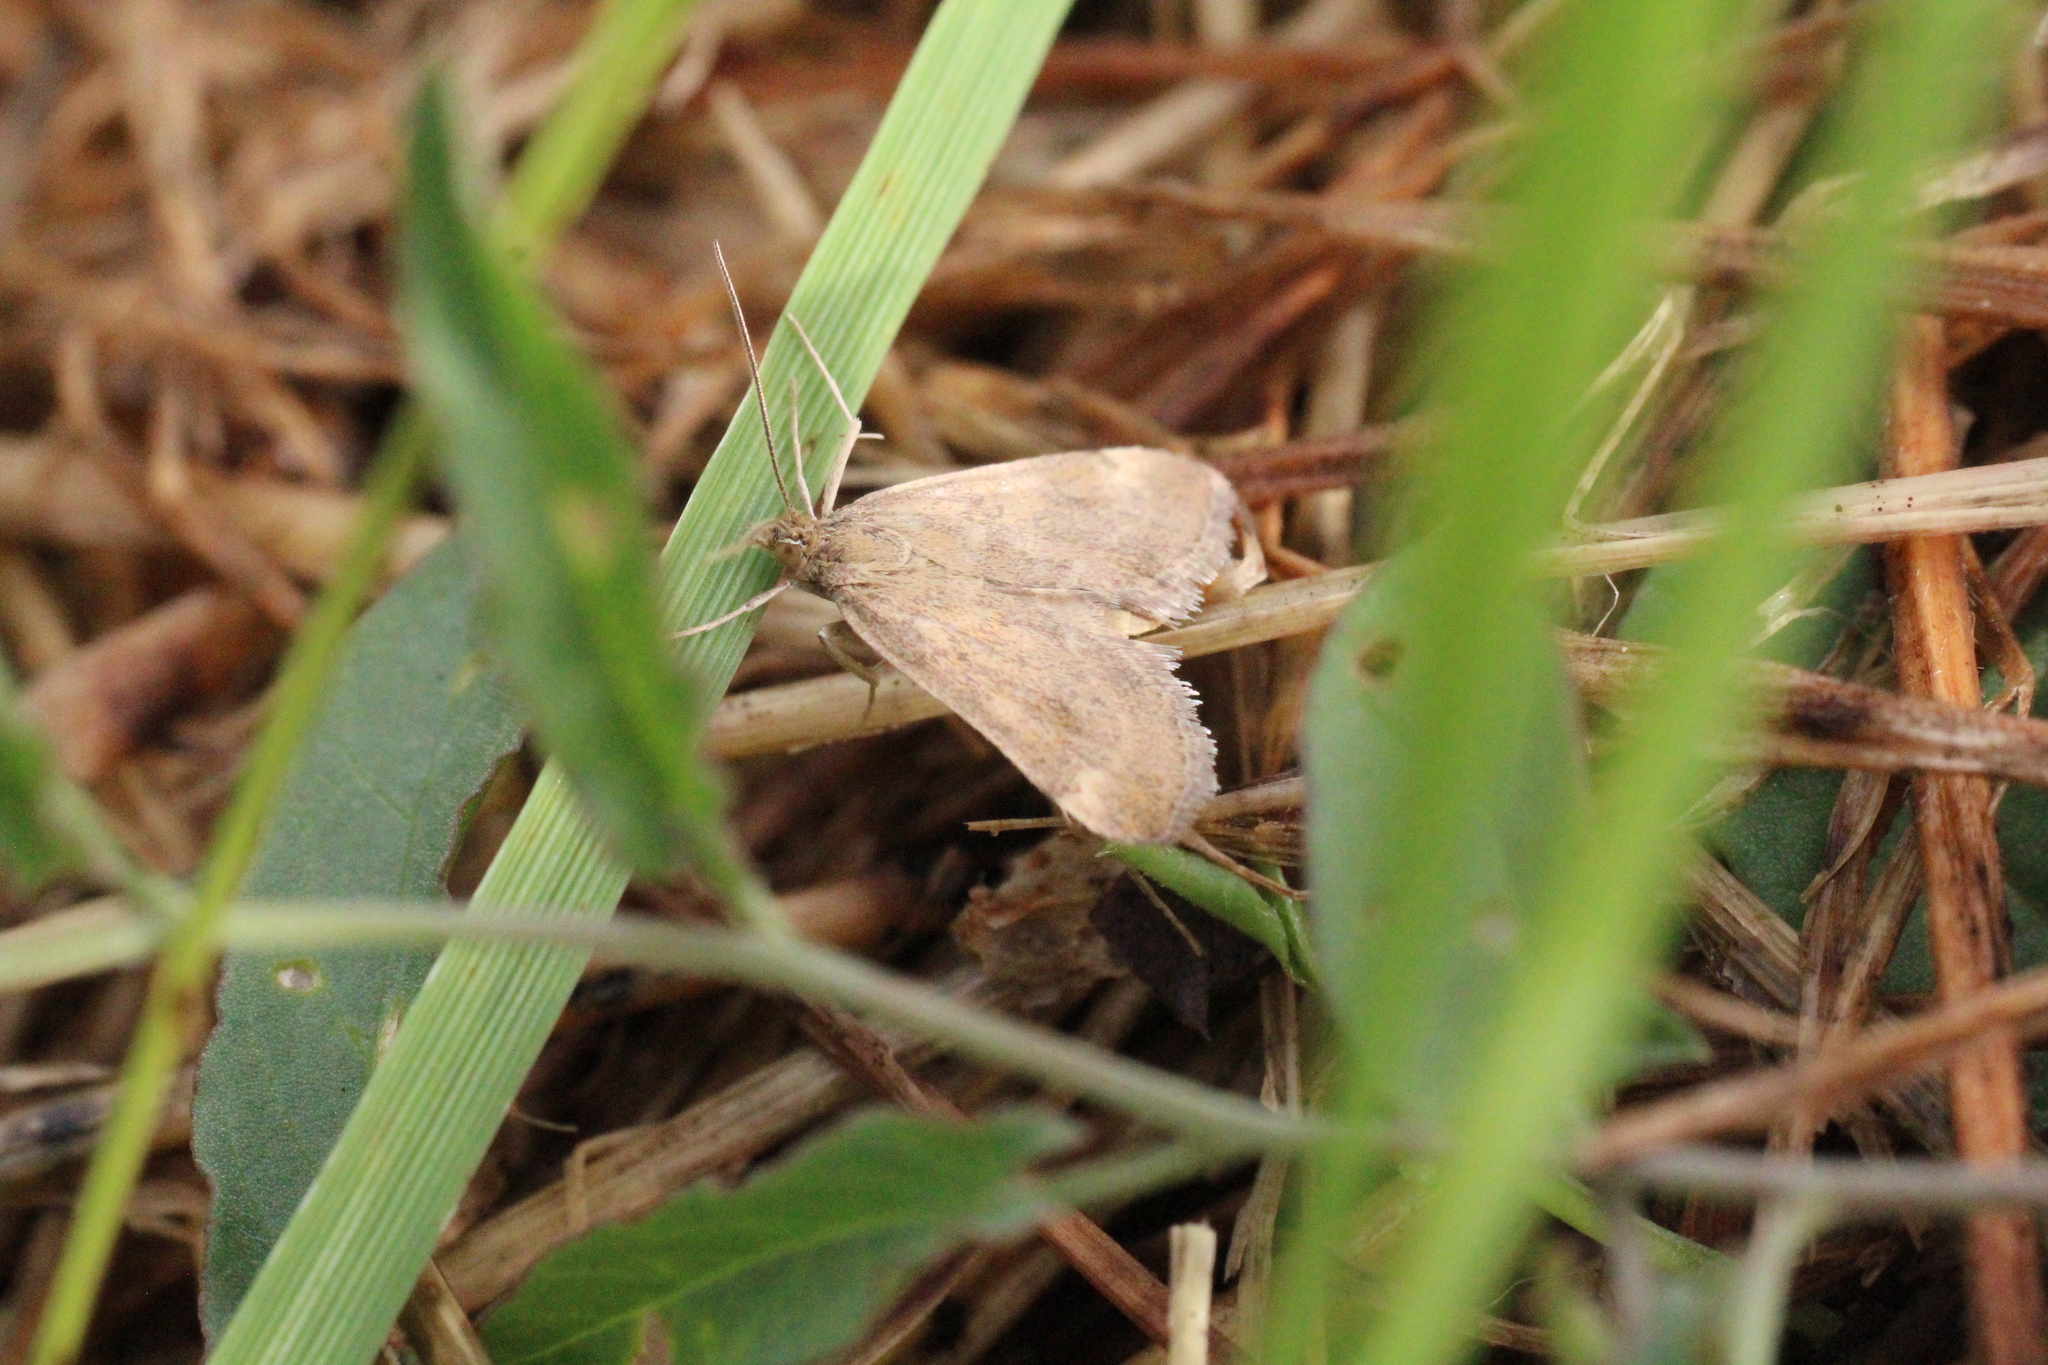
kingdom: Animalia
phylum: Arthropoda
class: Insecta
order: Lepidoptera
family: Crambidae
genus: Pyrausta
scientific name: Pyrausta despicata
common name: Straw-barred pearl
